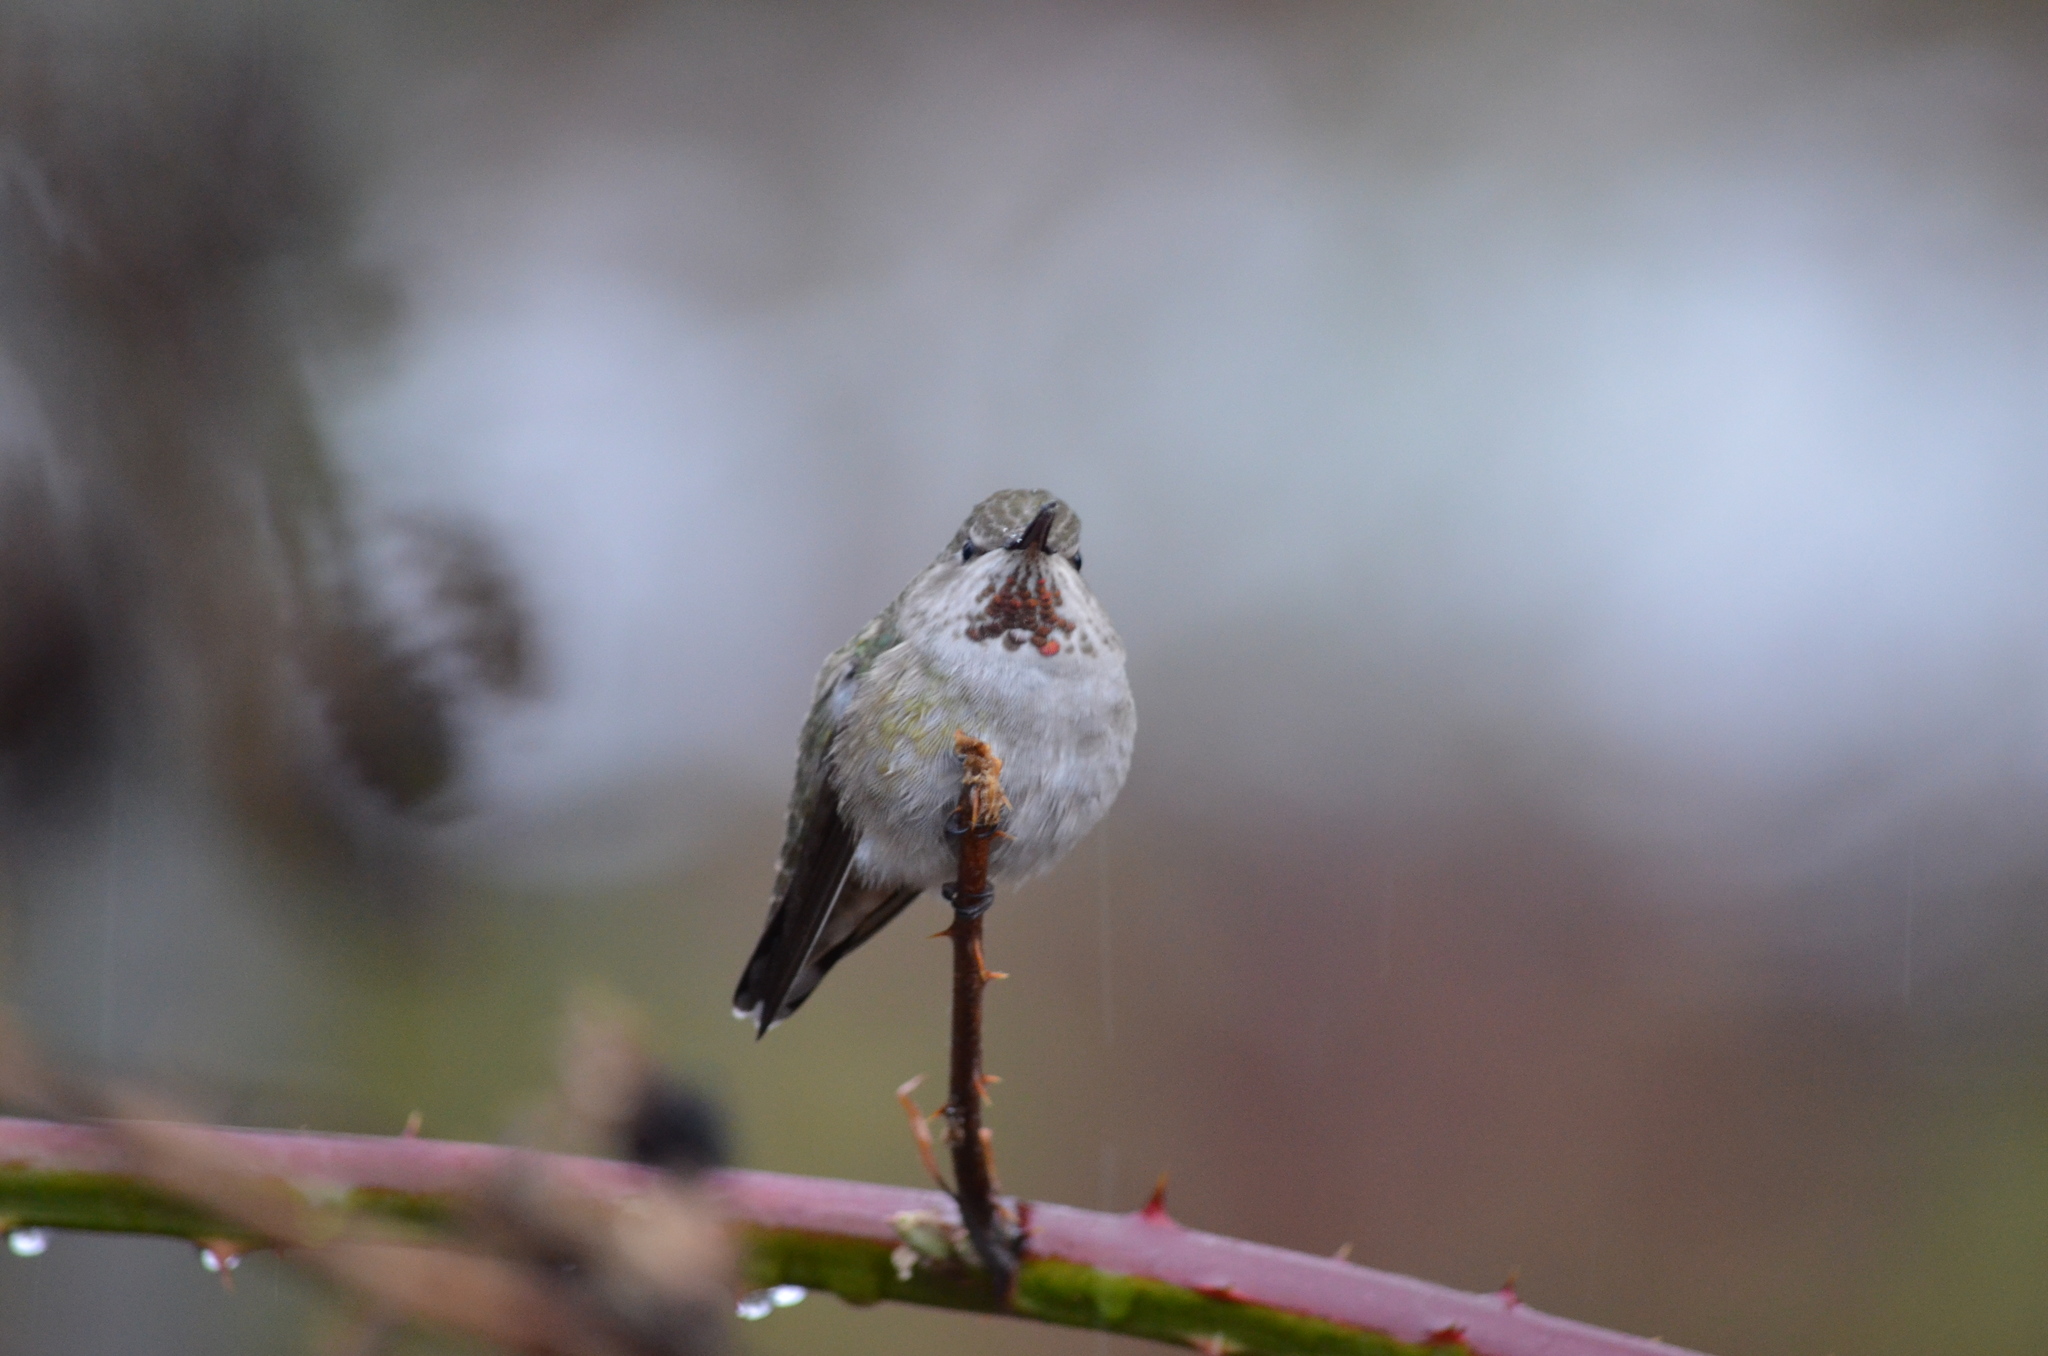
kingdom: Animalia
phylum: Chordata
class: Aves
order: Apodiformes
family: Trochilidae
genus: Calypte
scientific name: Calypte anna
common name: Anna's hummingbird
